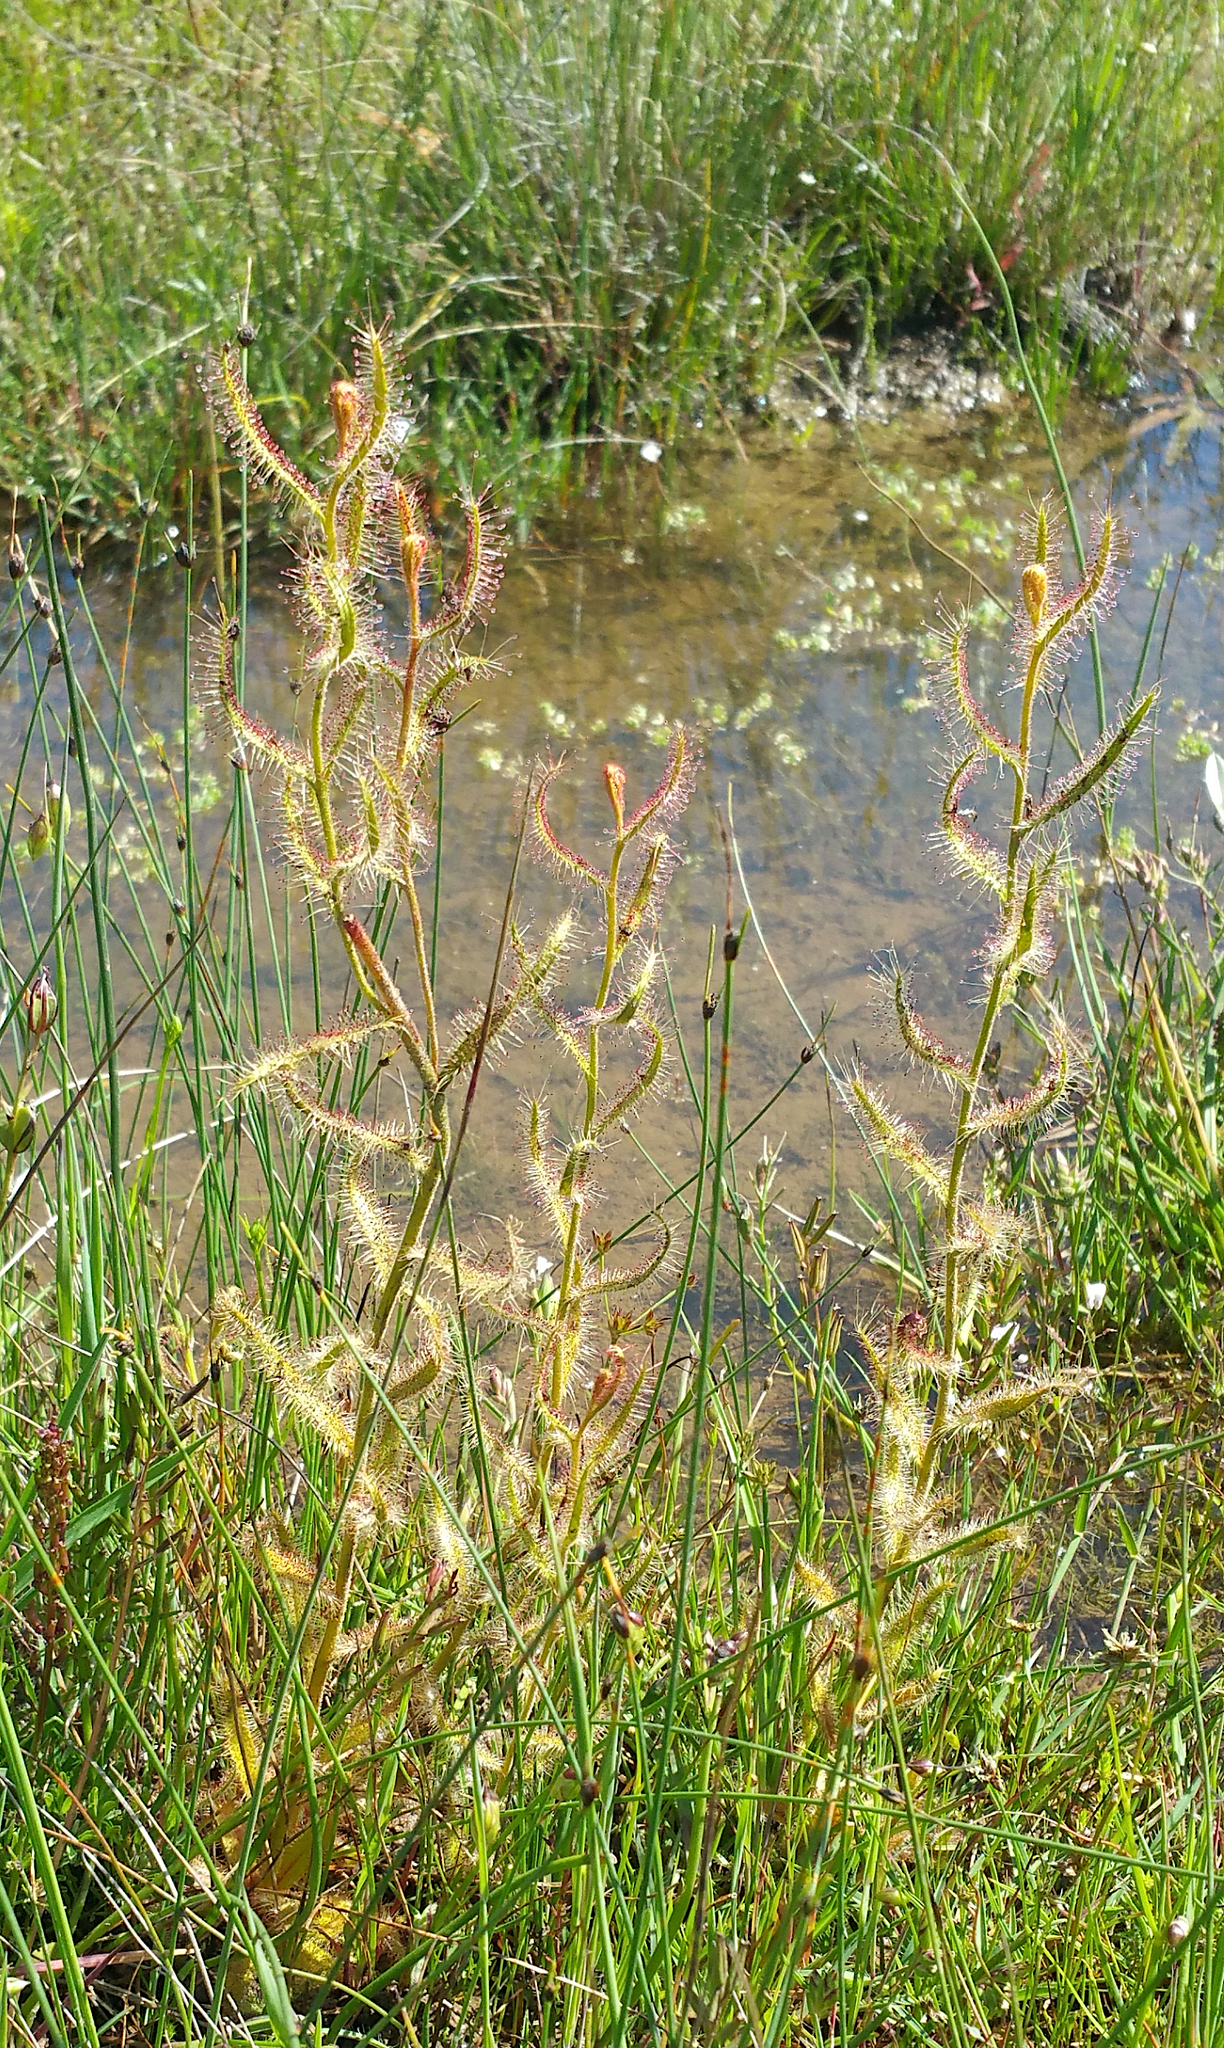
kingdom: Plantae
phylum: Tracheophyta
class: Magnoliopsida
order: Caryophyllales
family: Droseraceae
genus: Drosera
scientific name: Drosera cistiflora
